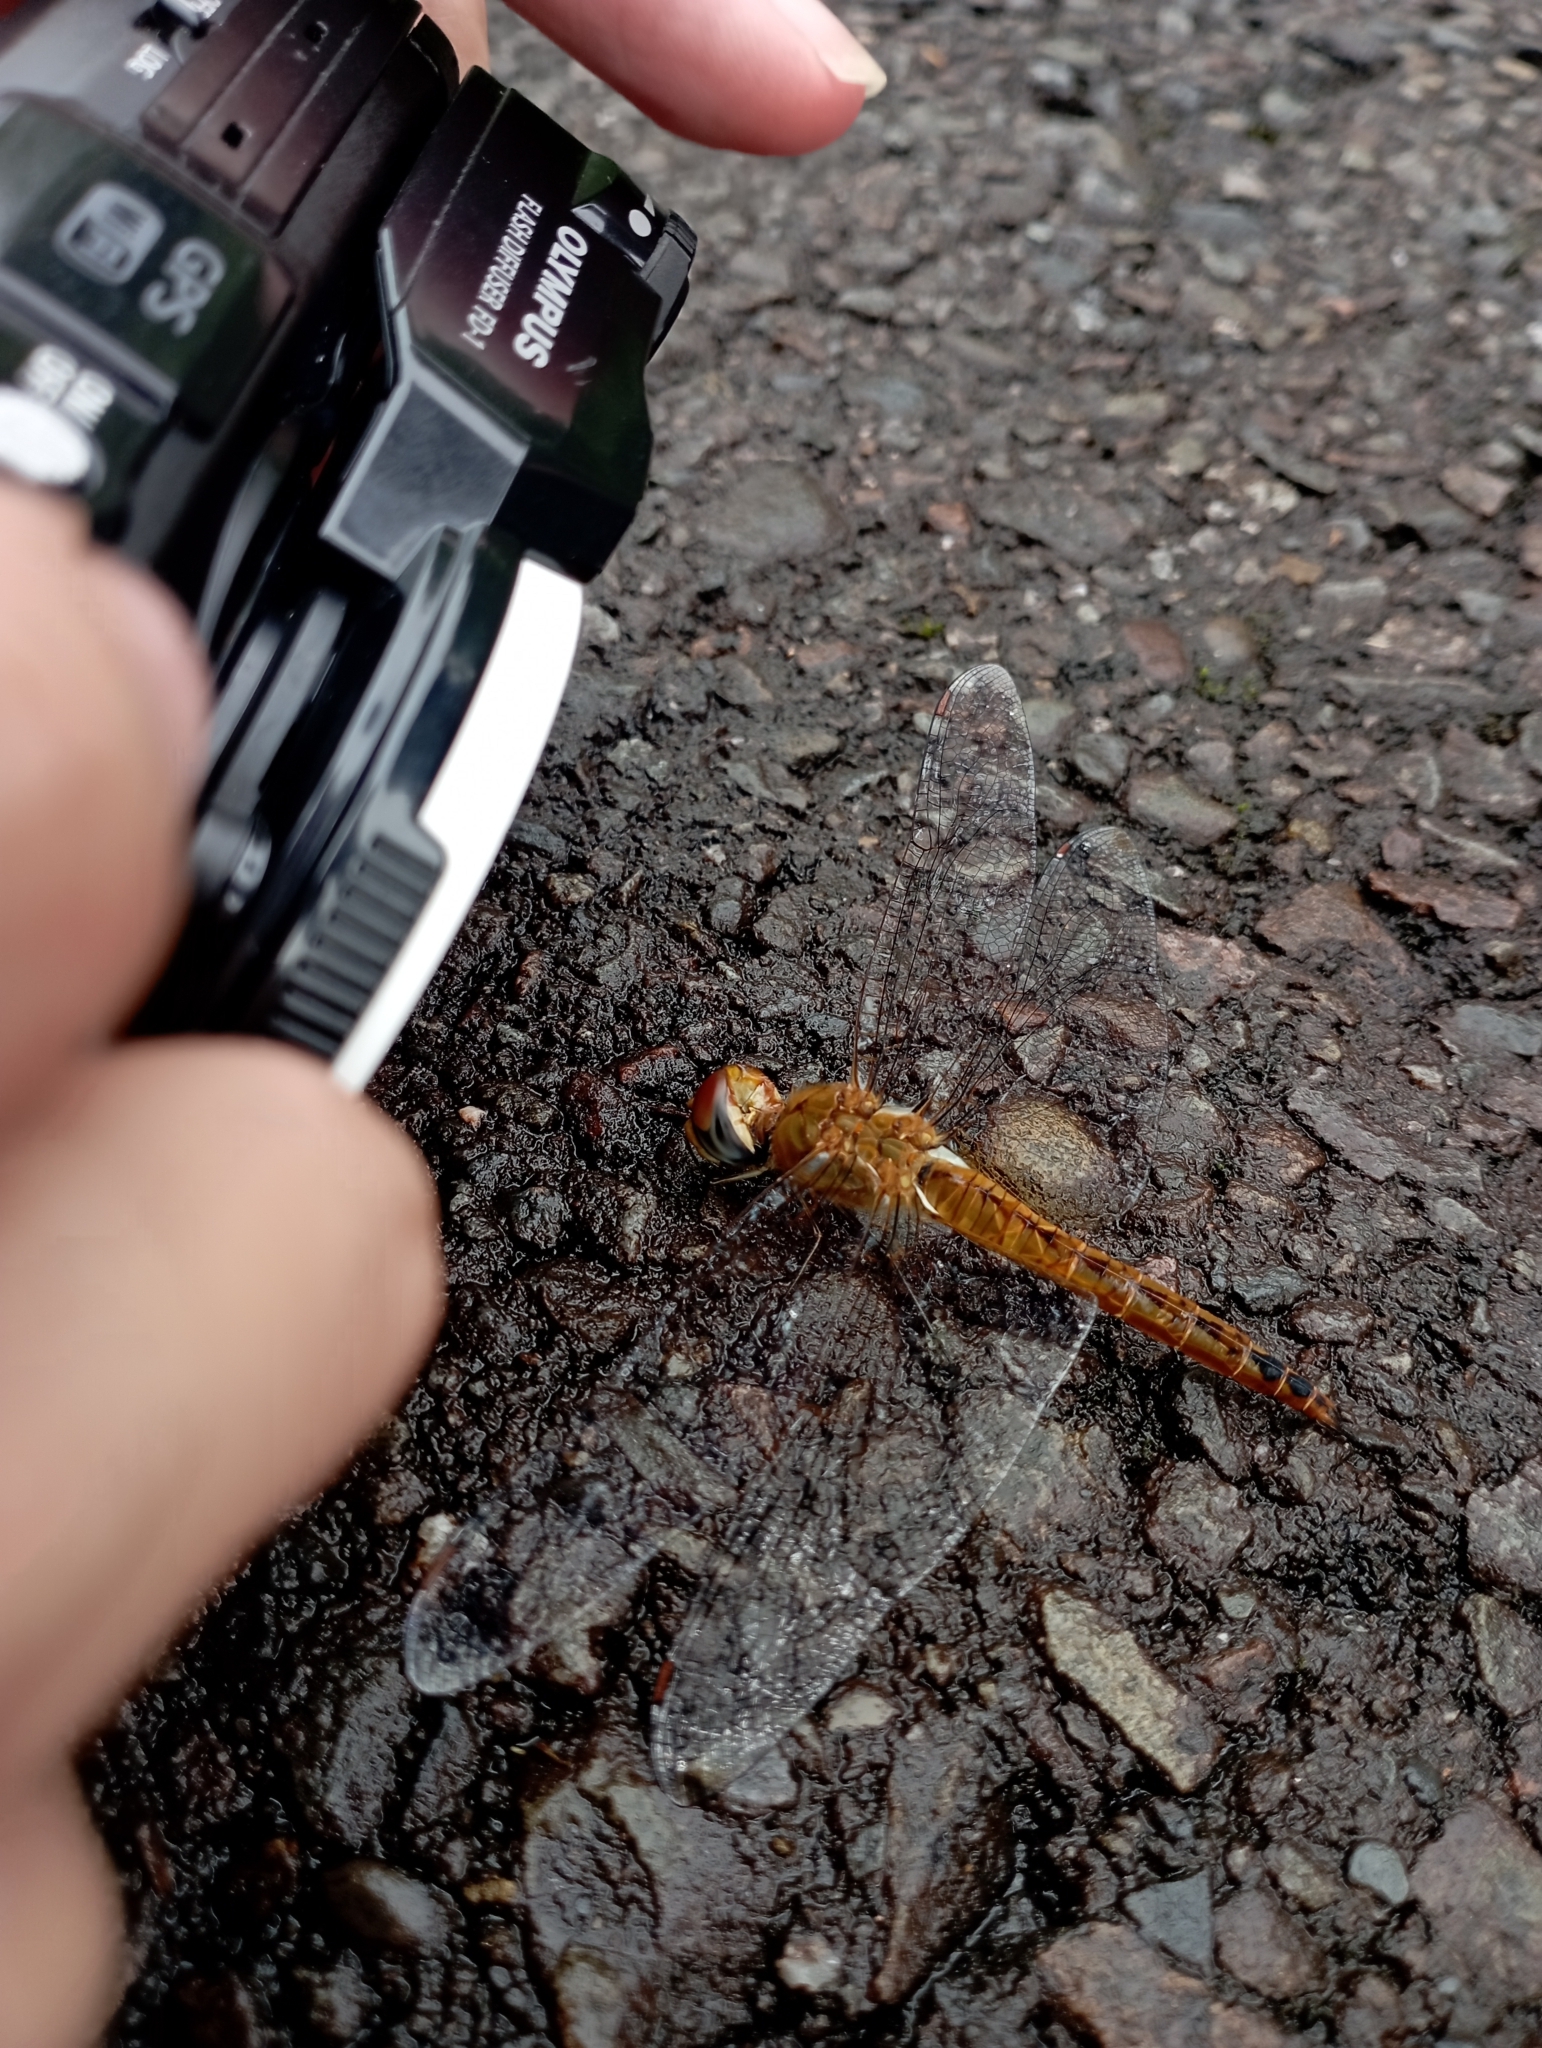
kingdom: Animalia
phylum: Arthropoda
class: Insecta
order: Odonata
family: Libellulidae
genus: Pantala
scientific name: Pantala flavescens
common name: Wandering glider
